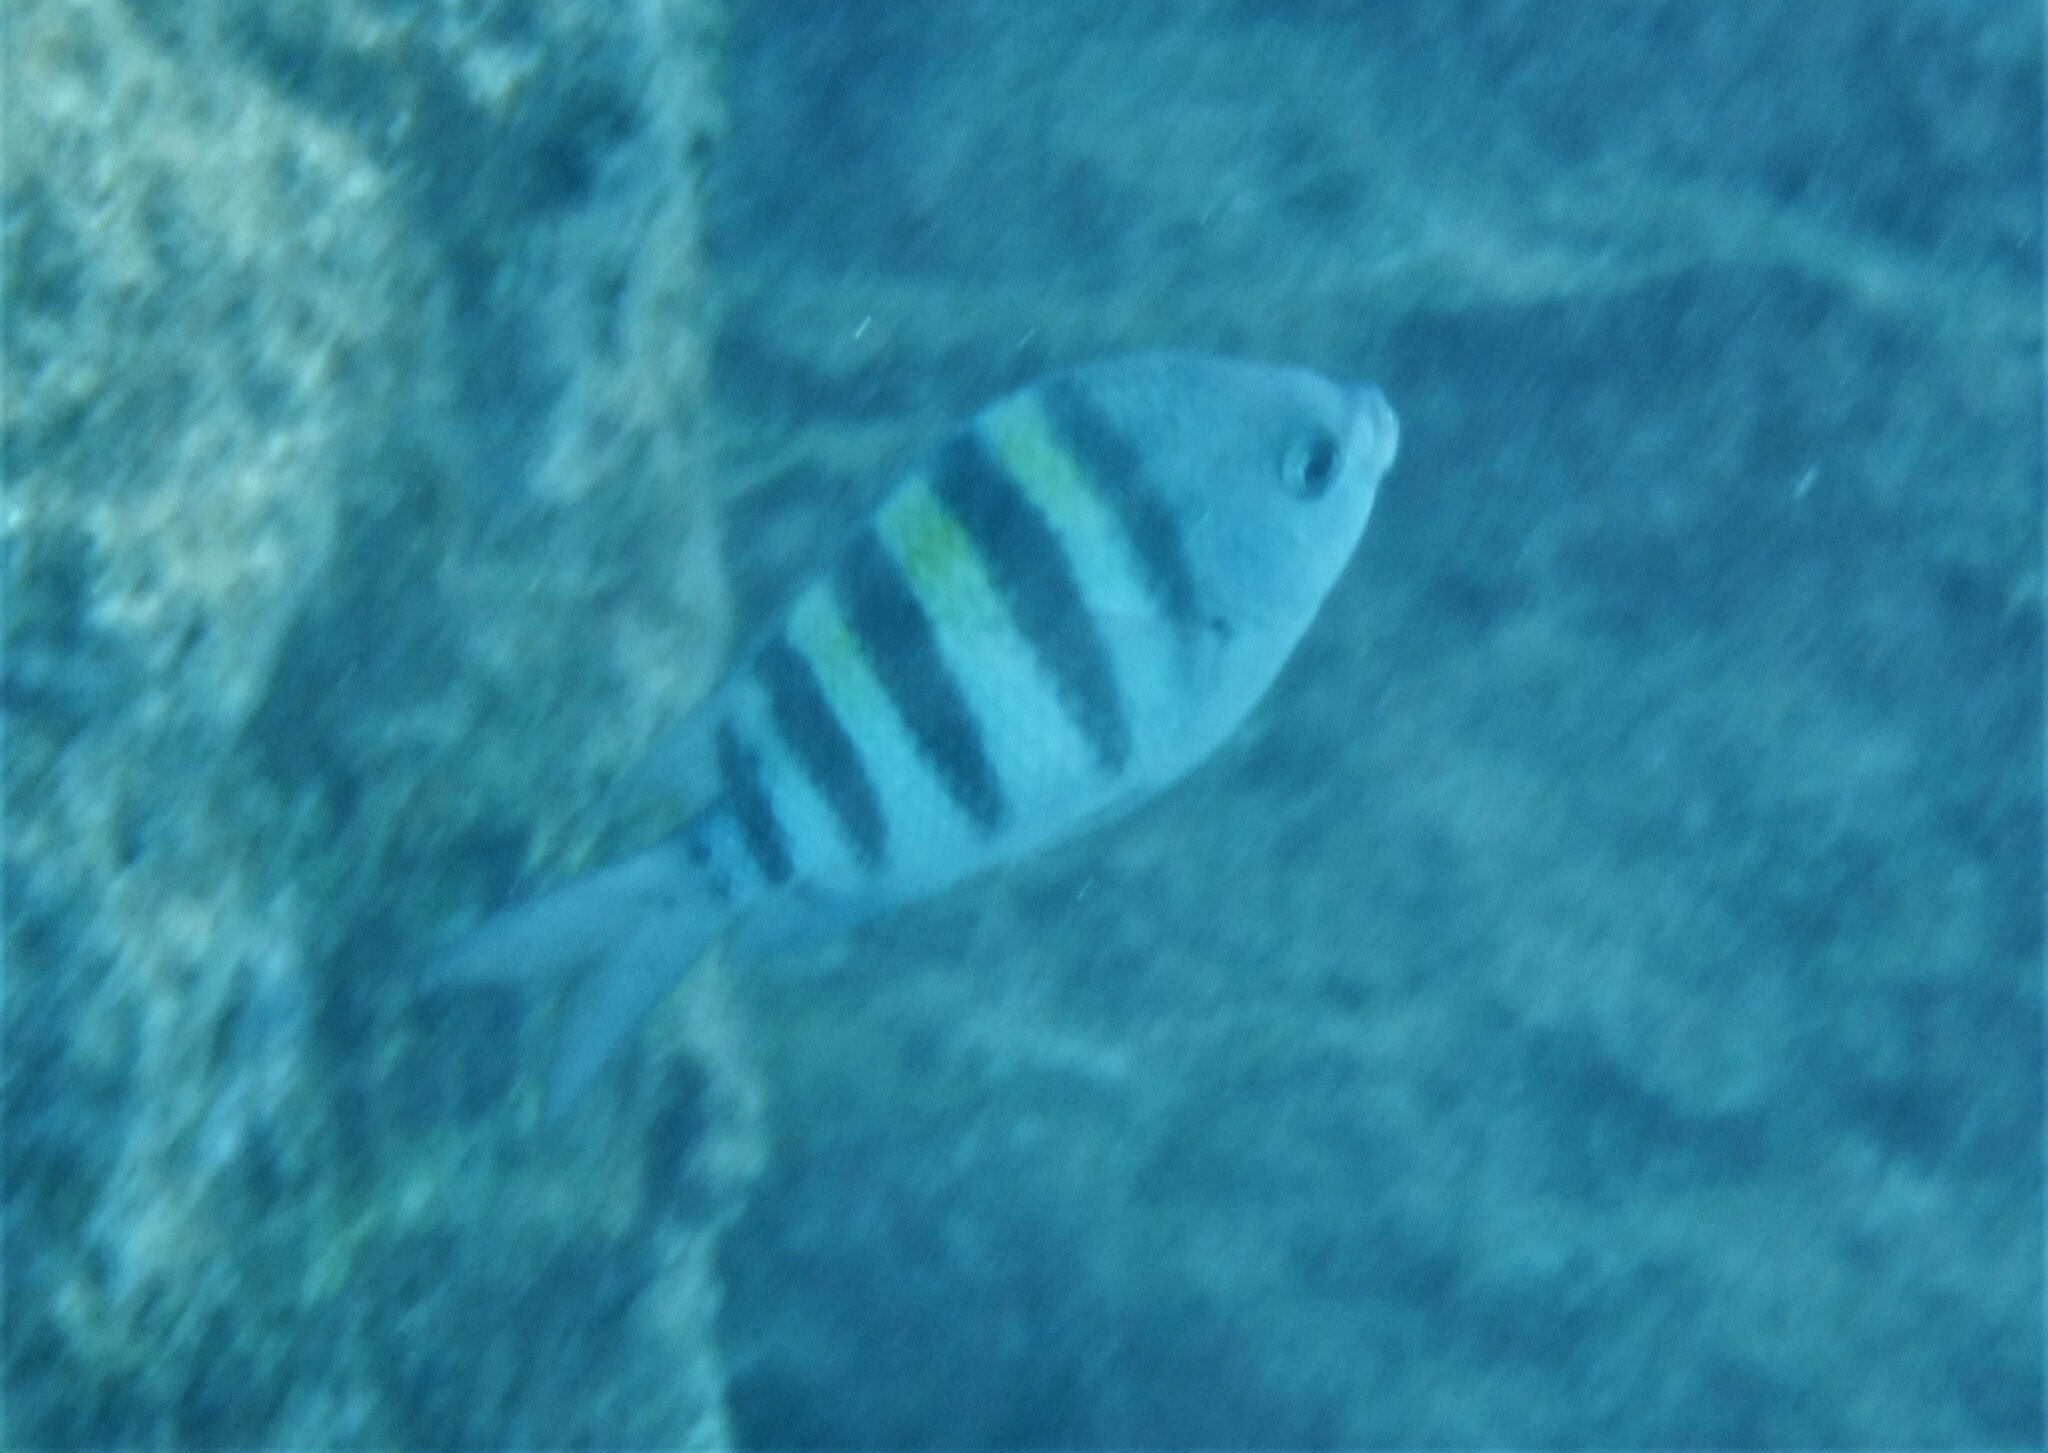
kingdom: Animalia
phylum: Chordata
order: Perciformes
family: Pomacentridae
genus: Abudefduf
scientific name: Abudefduf saxatilis
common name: Sergeant major
